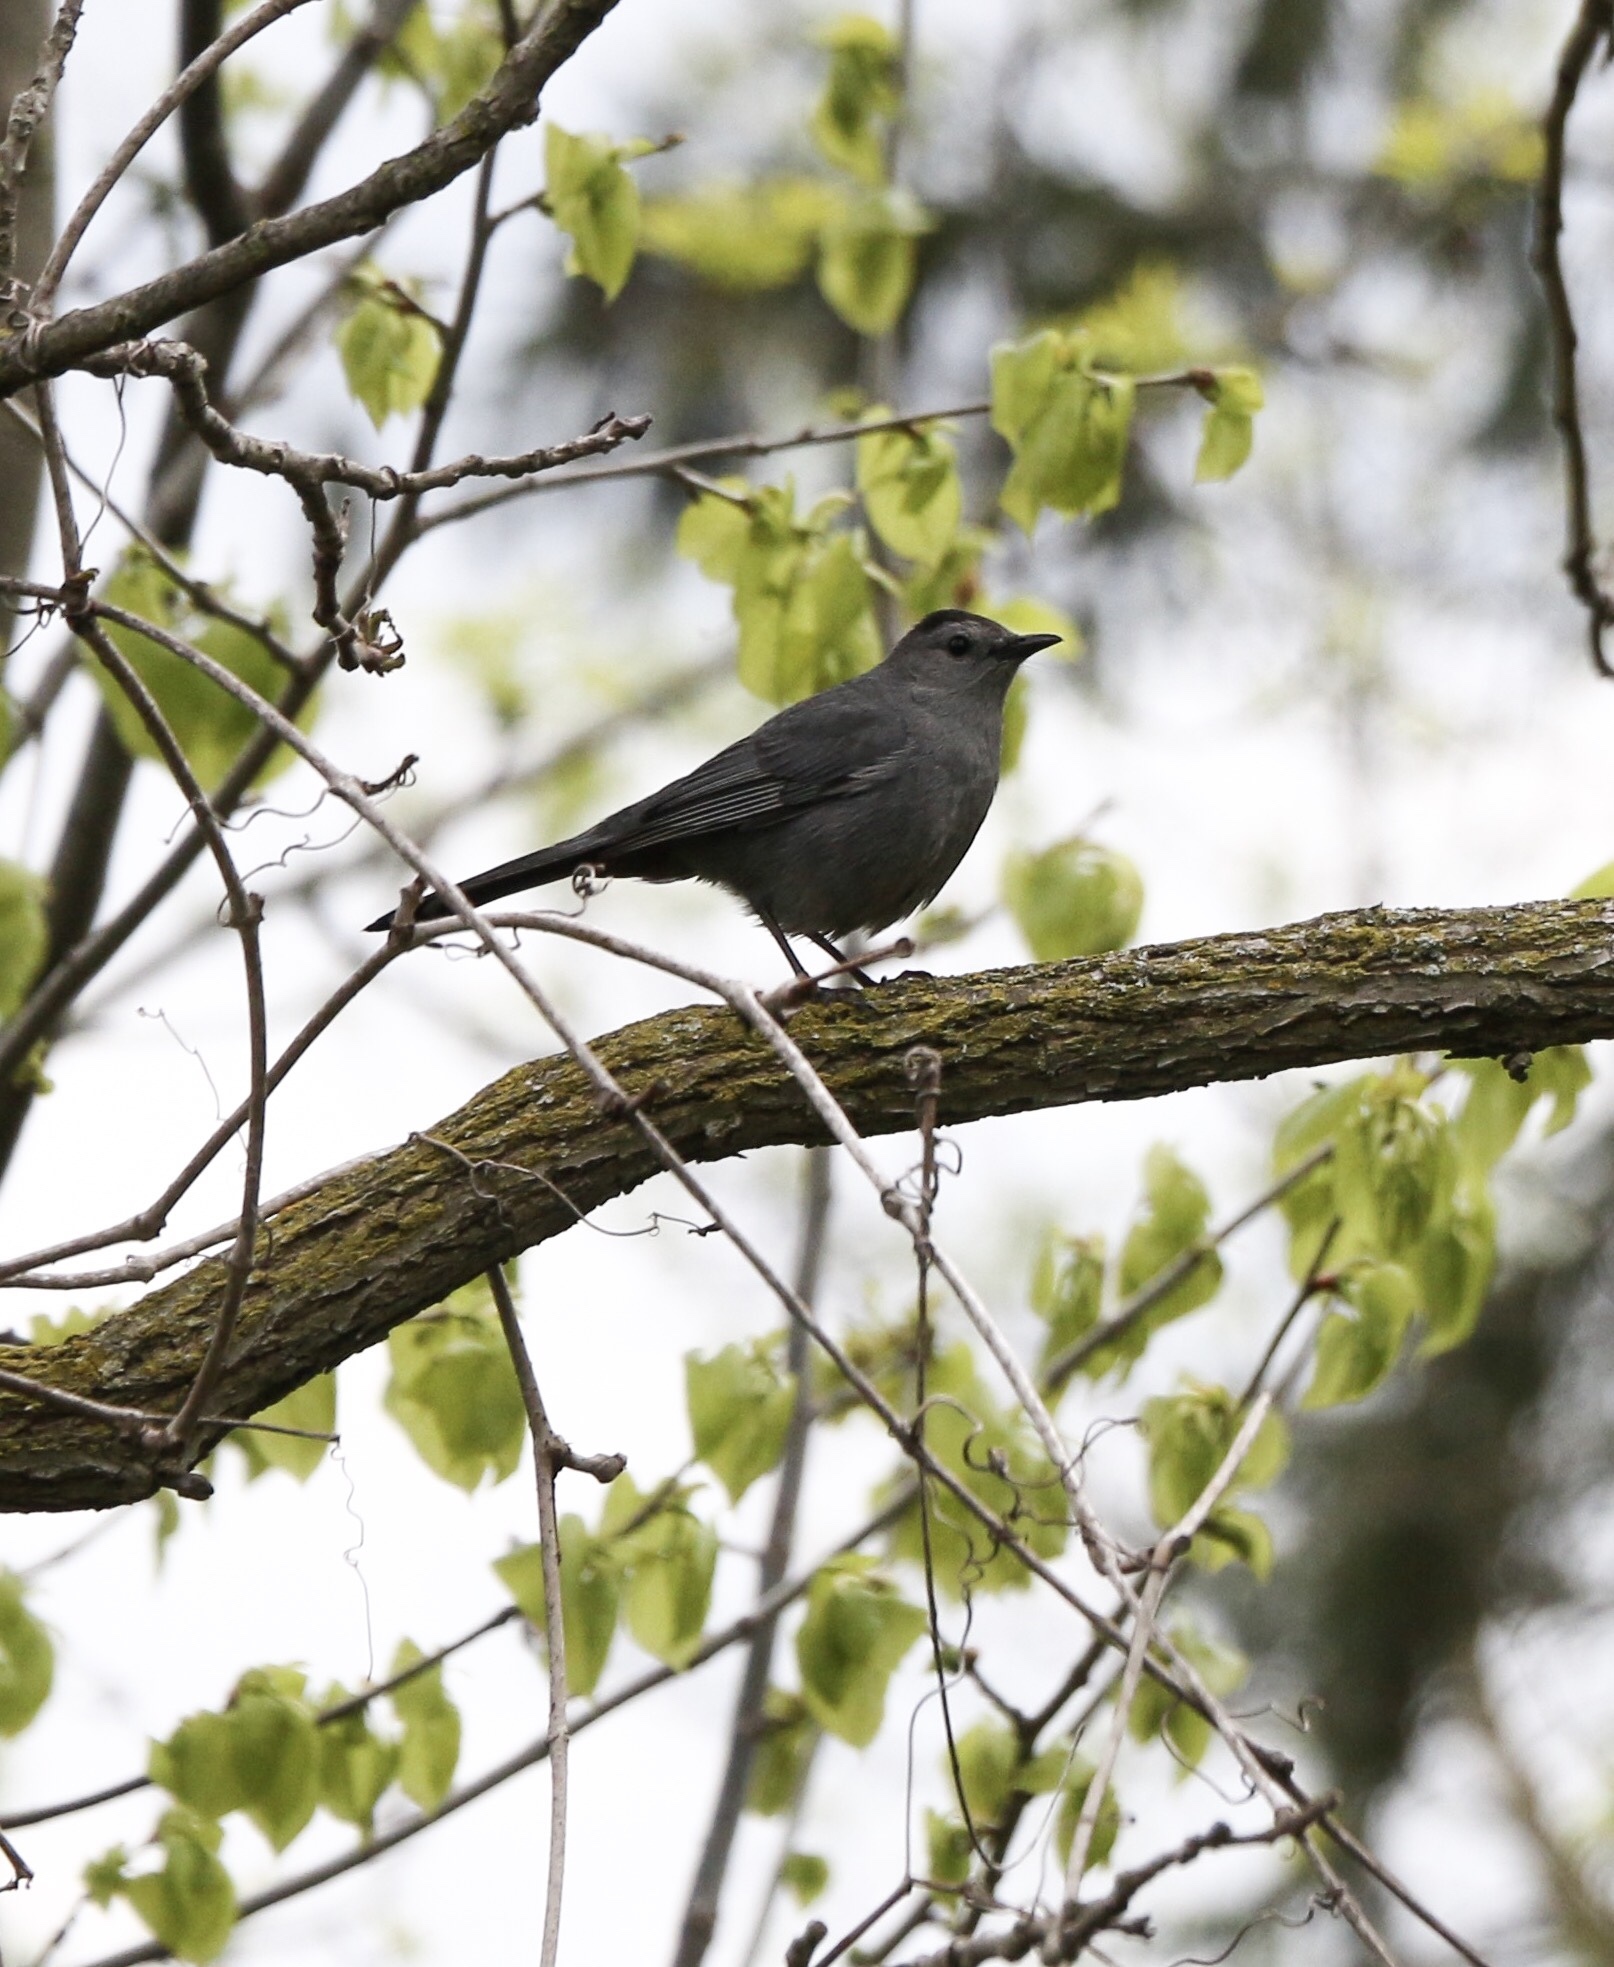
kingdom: Animalia
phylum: Chordata
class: Aves
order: Passeriformes
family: Mimidae
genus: Dumetella
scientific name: Dumetella carolinensis
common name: Gray catbird
